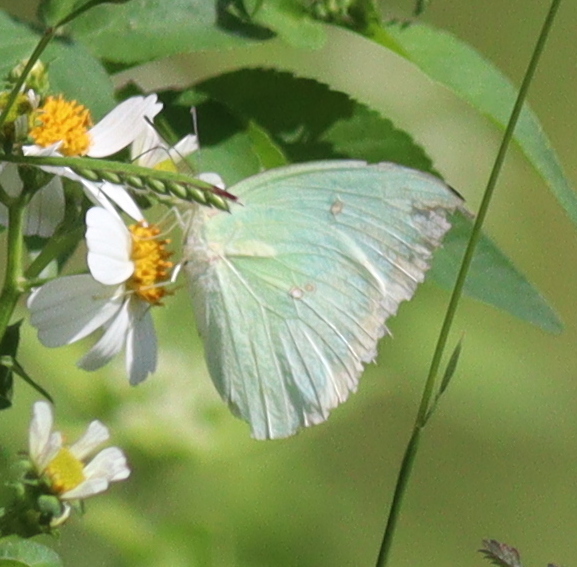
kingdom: Animalia
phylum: Arthropoda
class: Insecta
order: Lepidoptera
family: Pieridae
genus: Catopsilia
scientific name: Catopsilia pomona
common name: Common emigrant
